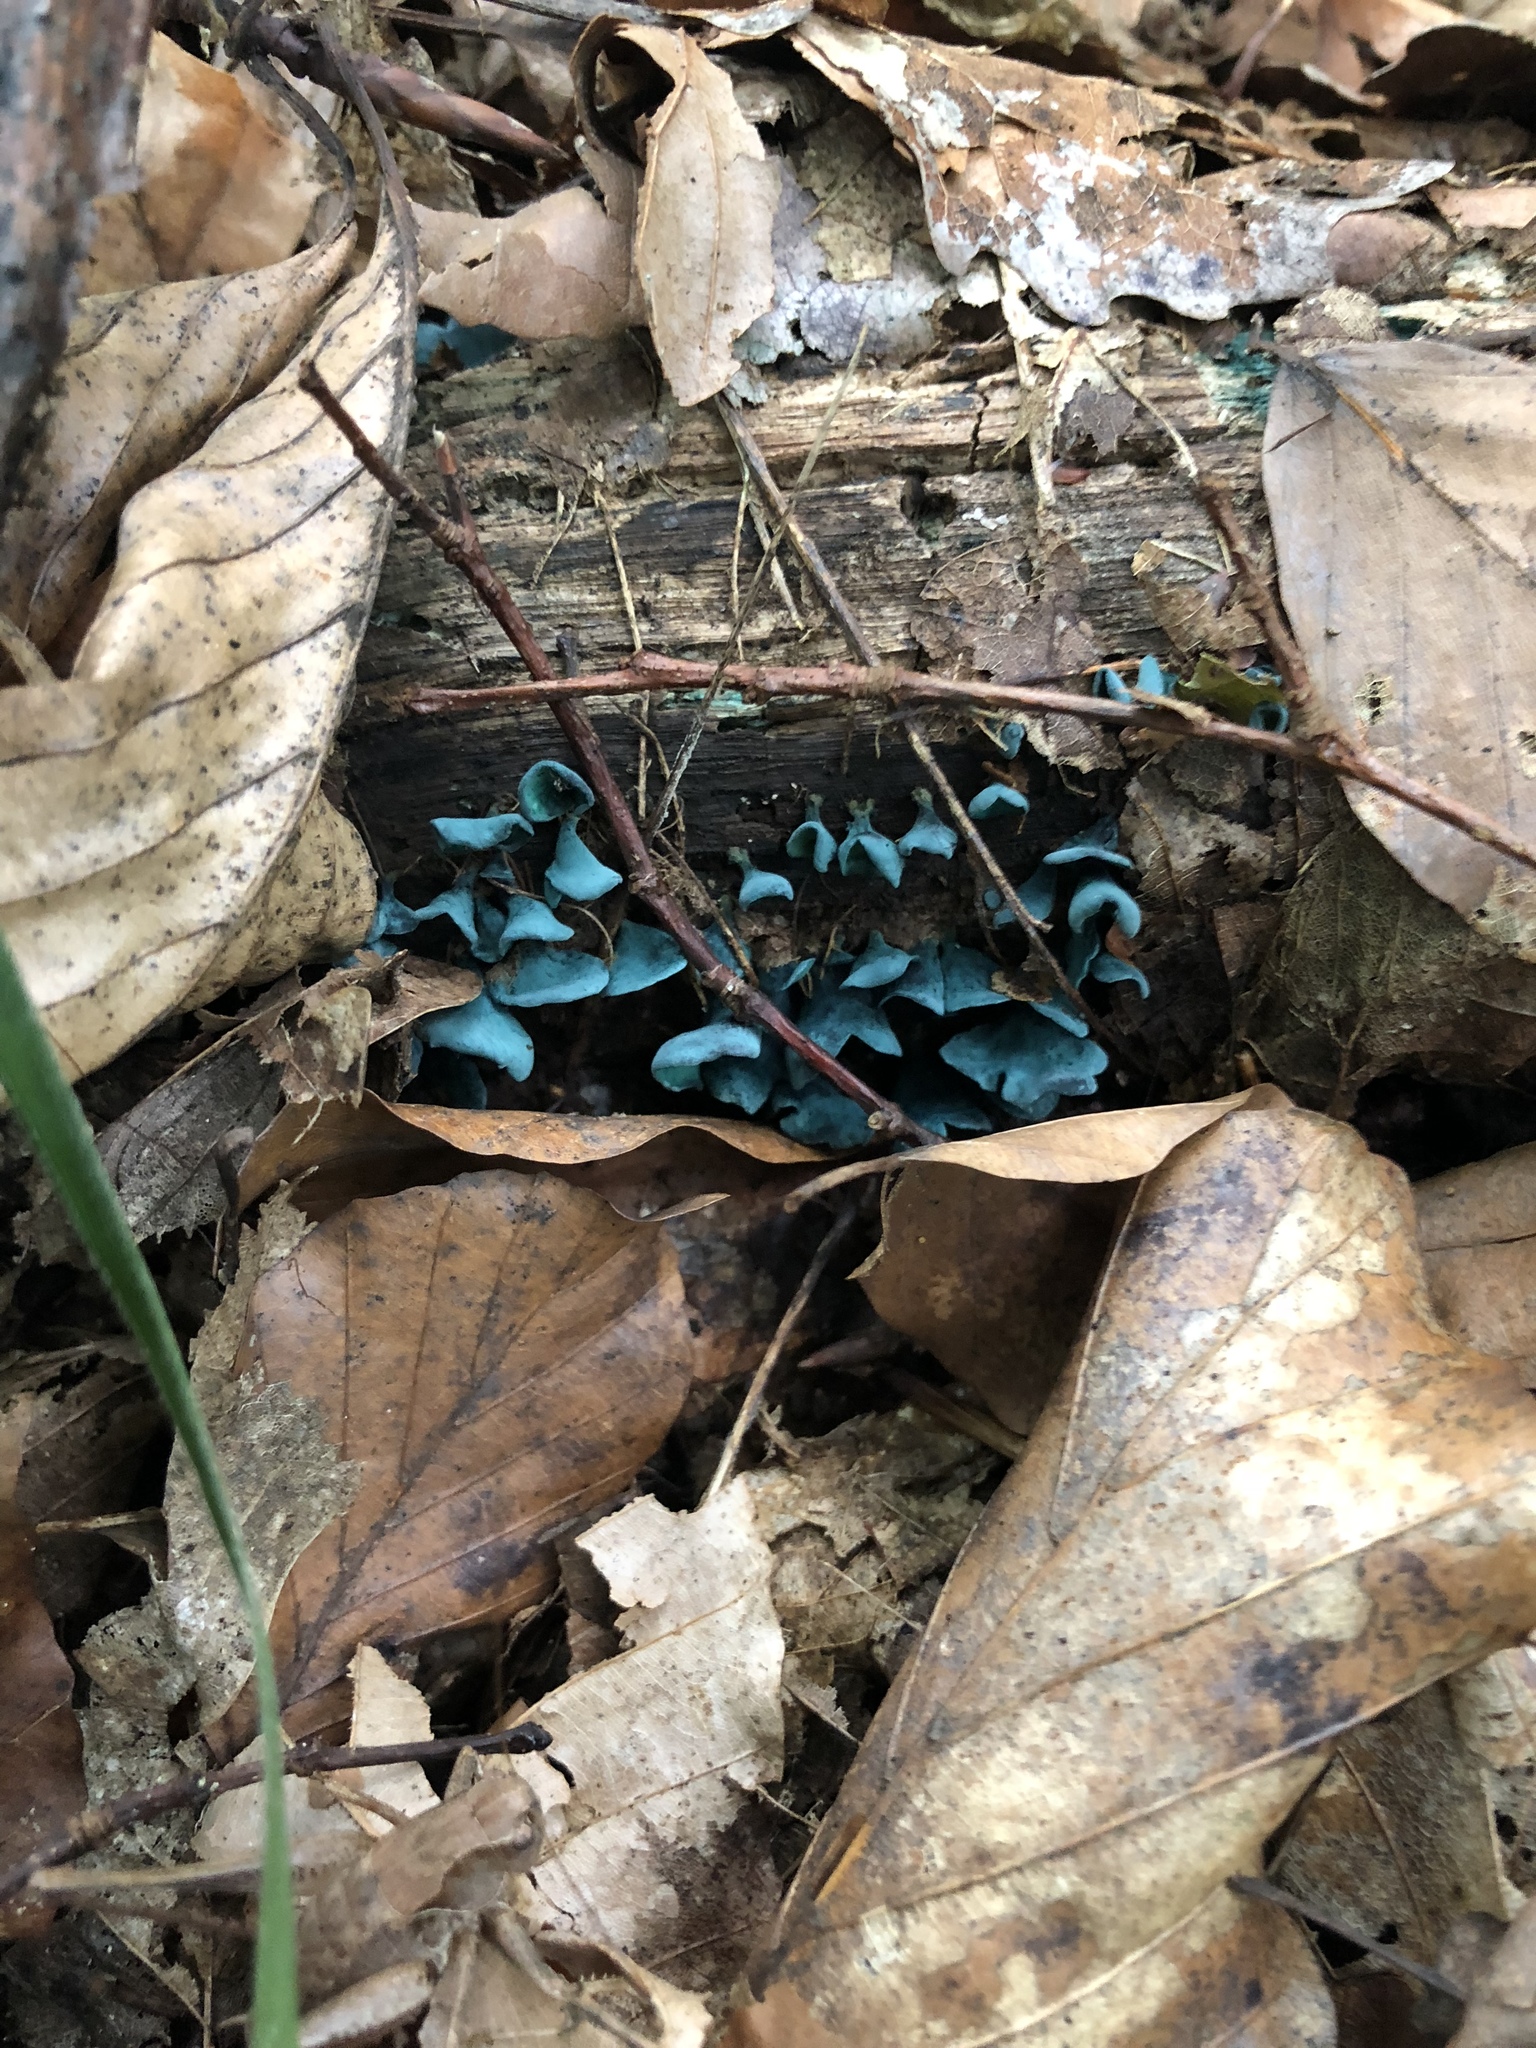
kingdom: Fungi
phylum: Ascomycota
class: Leotiomycetes
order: Helotiales
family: Chlorociboriaceae
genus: Chlorociboria
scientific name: Chlorociboria aeruginascens
